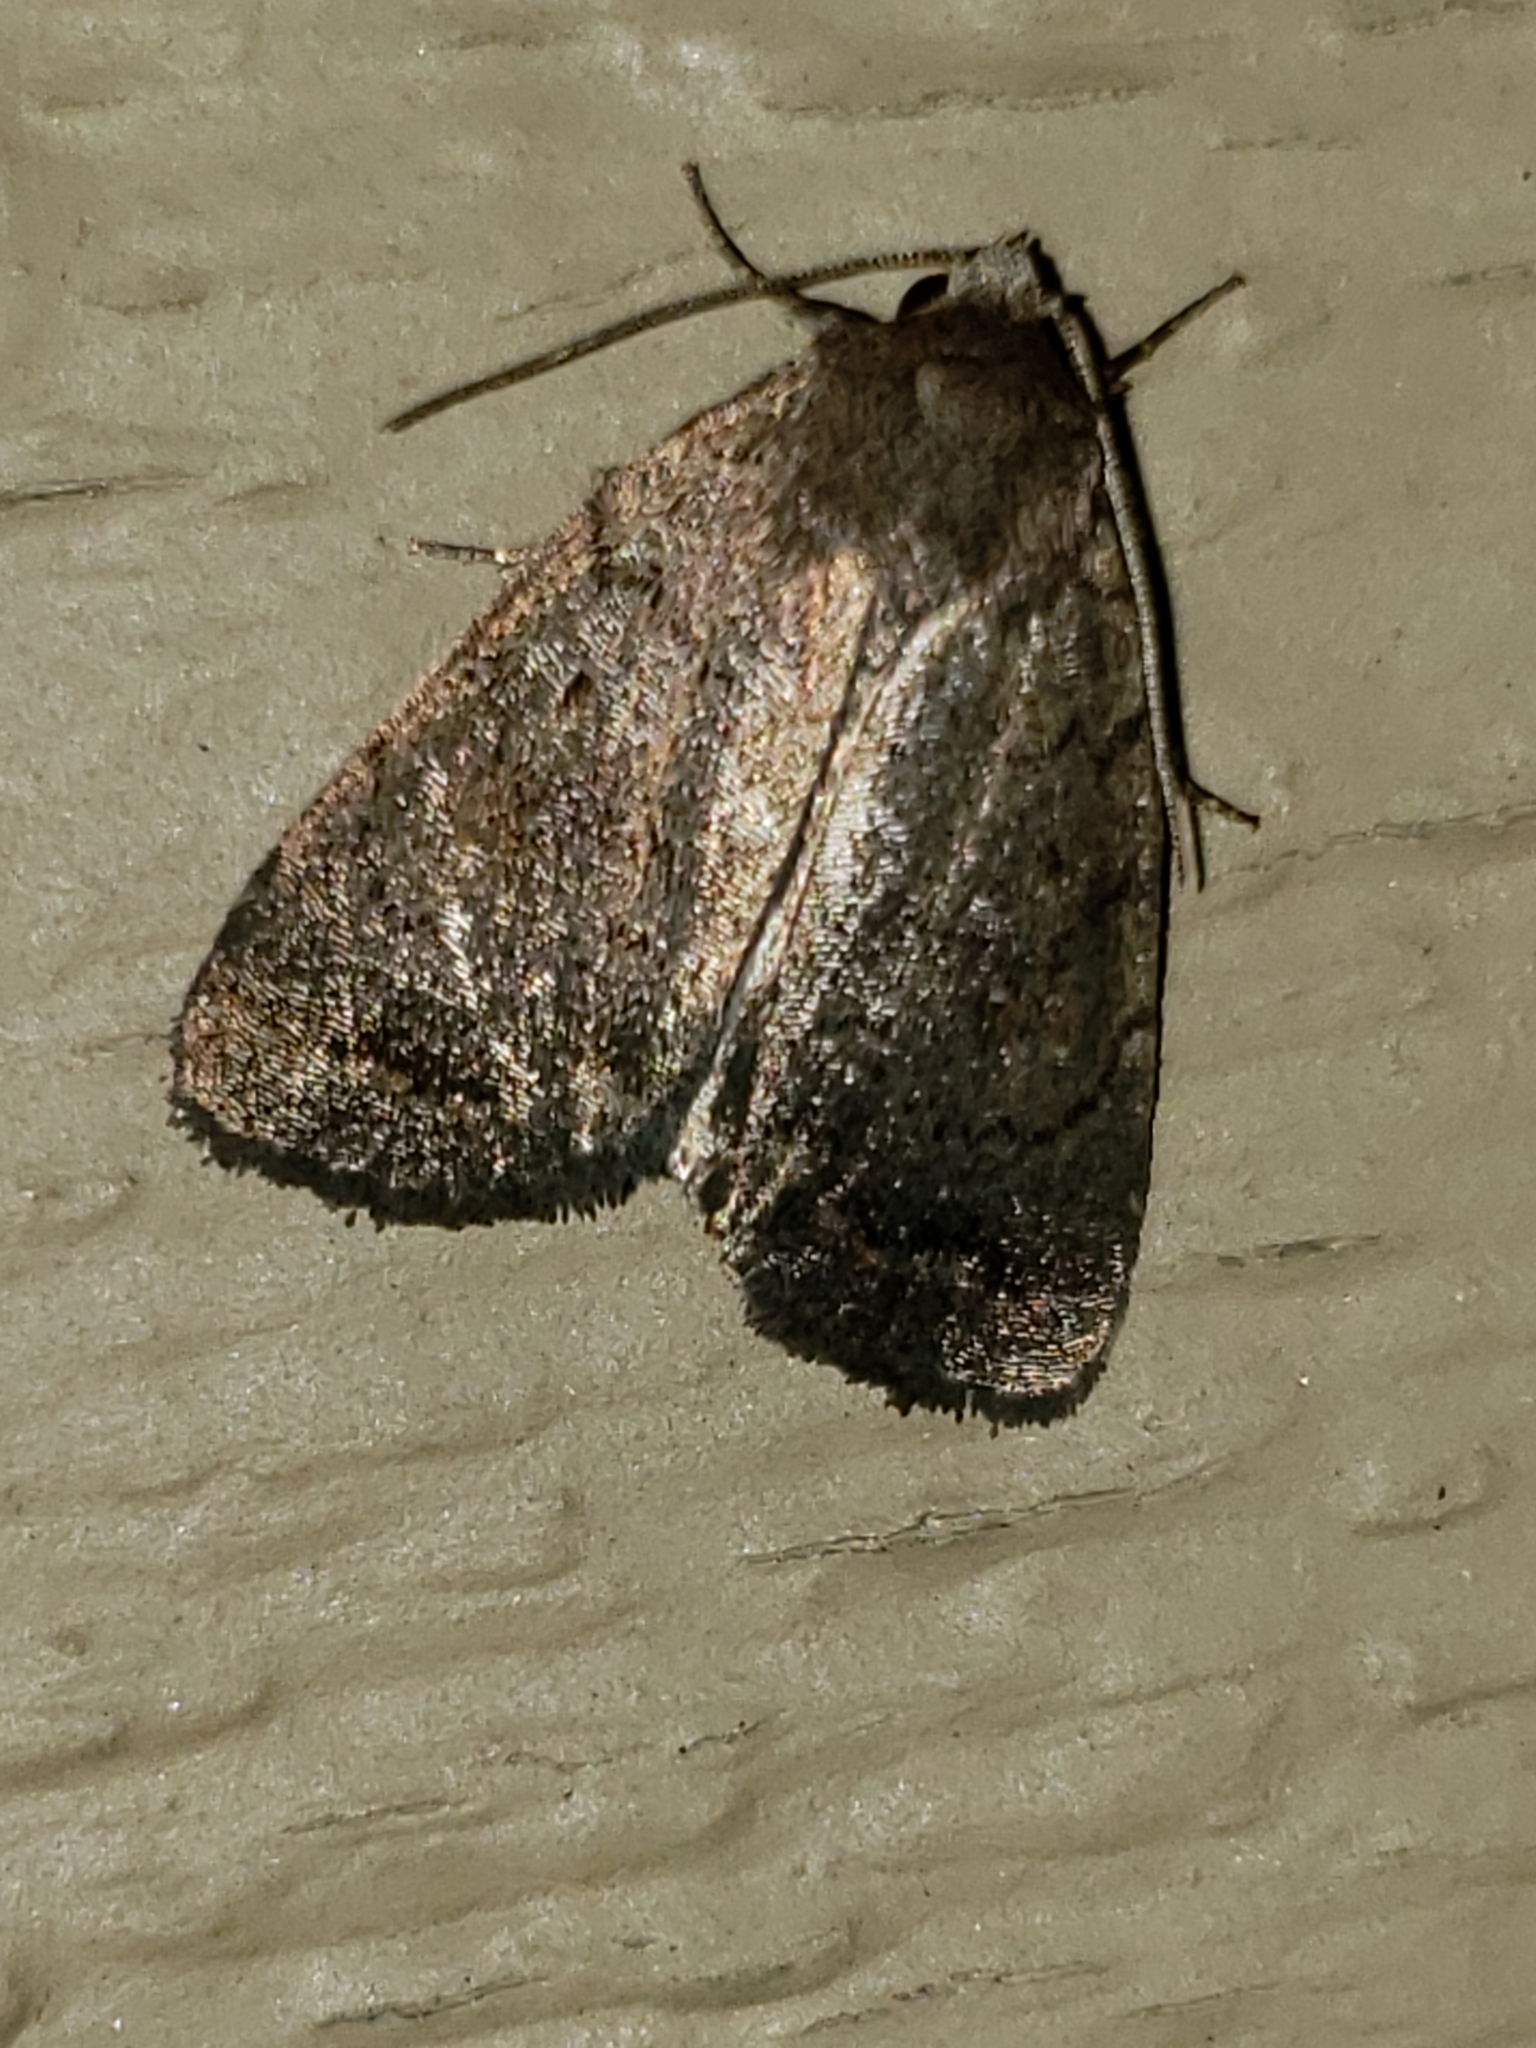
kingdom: Animalia
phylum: Arthropoda
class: Insecta
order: Lepidoptera
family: Noctuidae
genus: Athetis
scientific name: Athetis tarda
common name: Slowpoke moth
